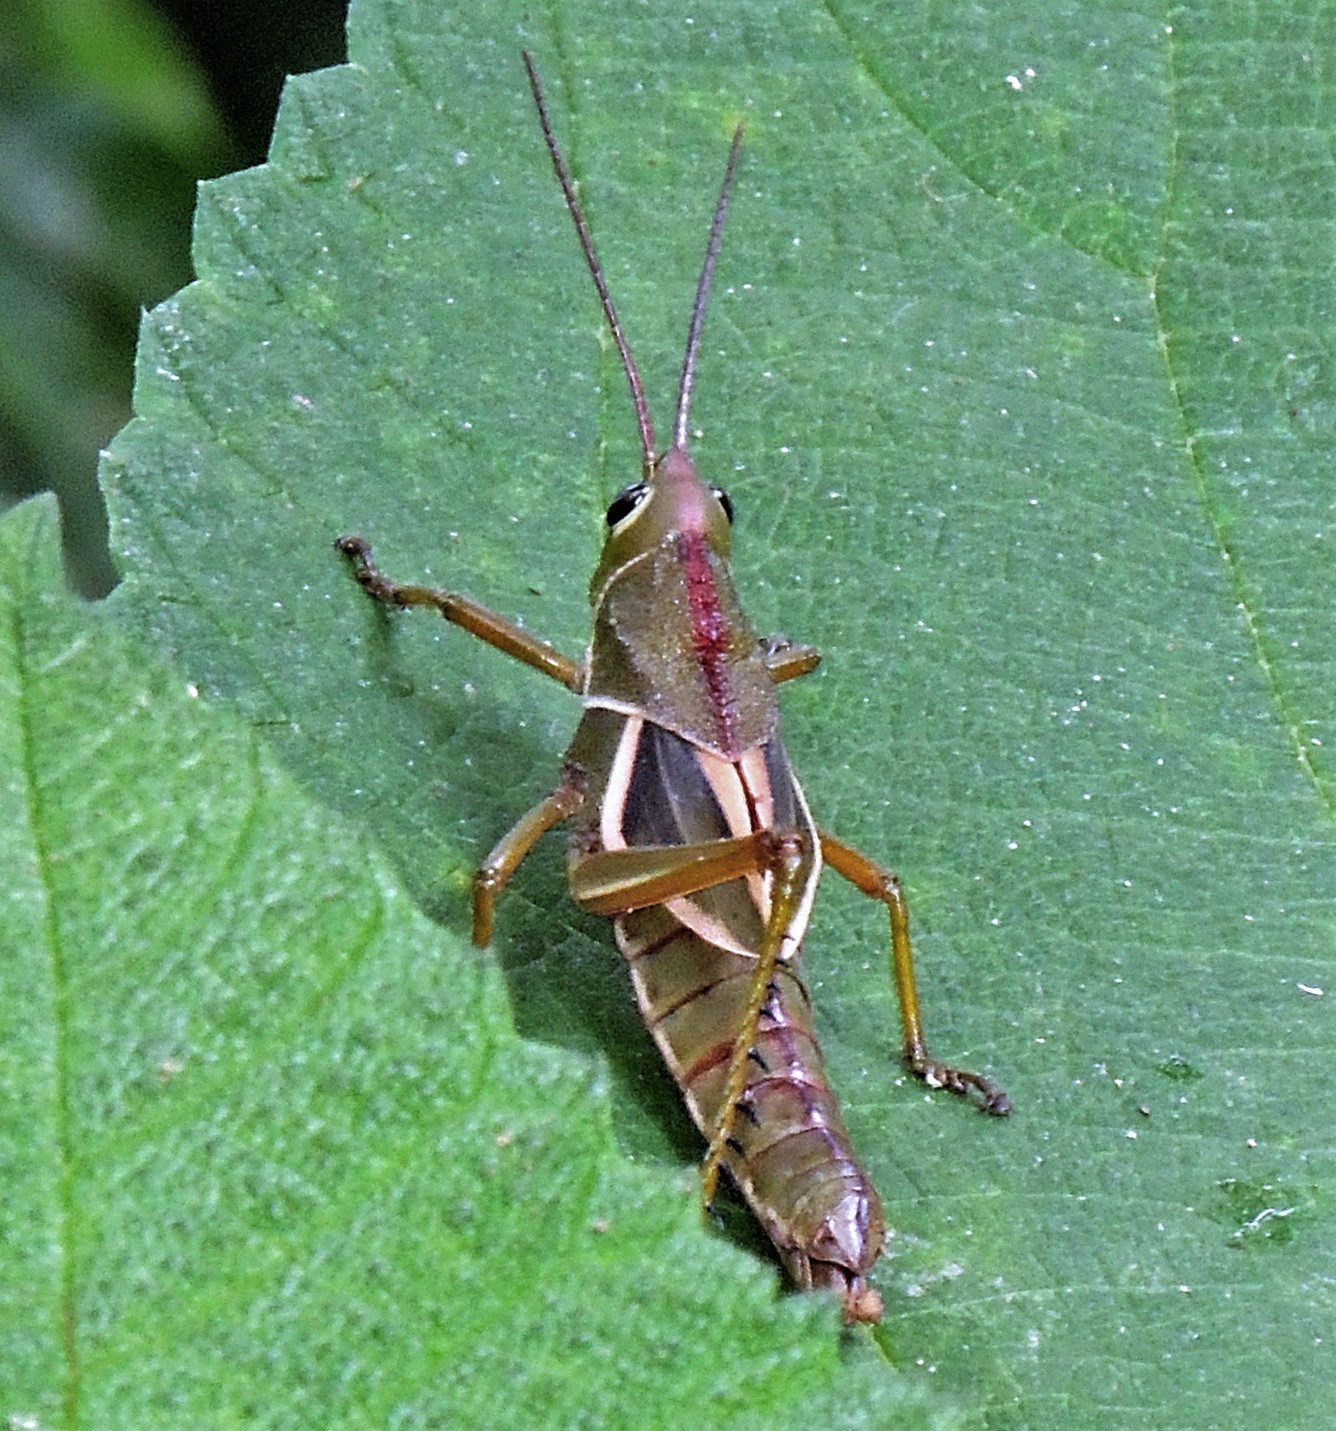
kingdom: Animalia
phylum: Arthropoda
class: Insecta
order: Orthoptera
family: Romaleidae
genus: Staleochlora
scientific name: Staleochlora arcuata
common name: Paraná purple-backed grasshopper
